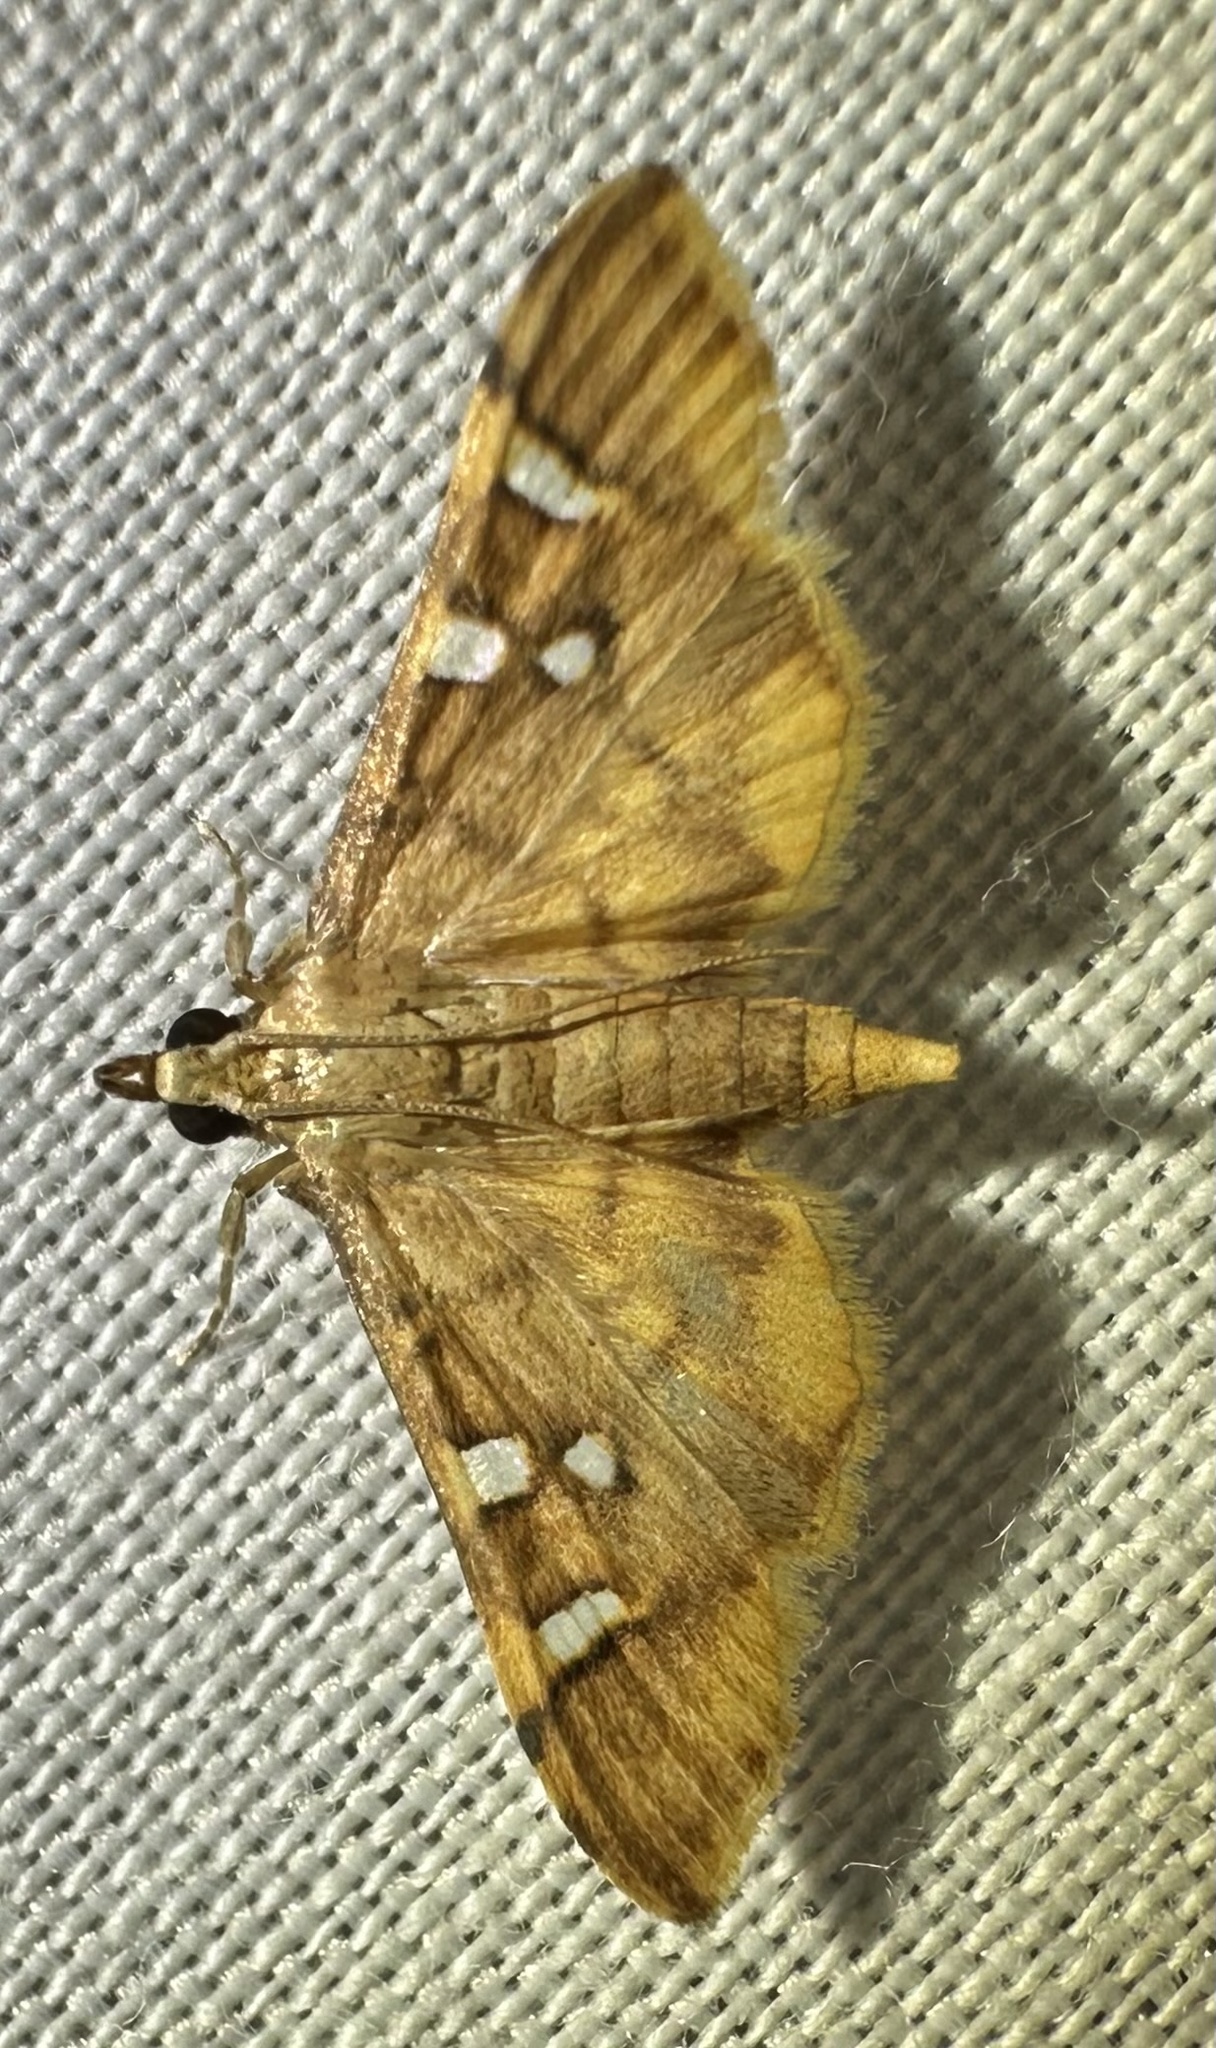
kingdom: Animalia
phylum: Arthropoda
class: Insecta
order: Lepidoptera
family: Crambidae
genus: Prophantis
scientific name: Prophantis smaragdina
